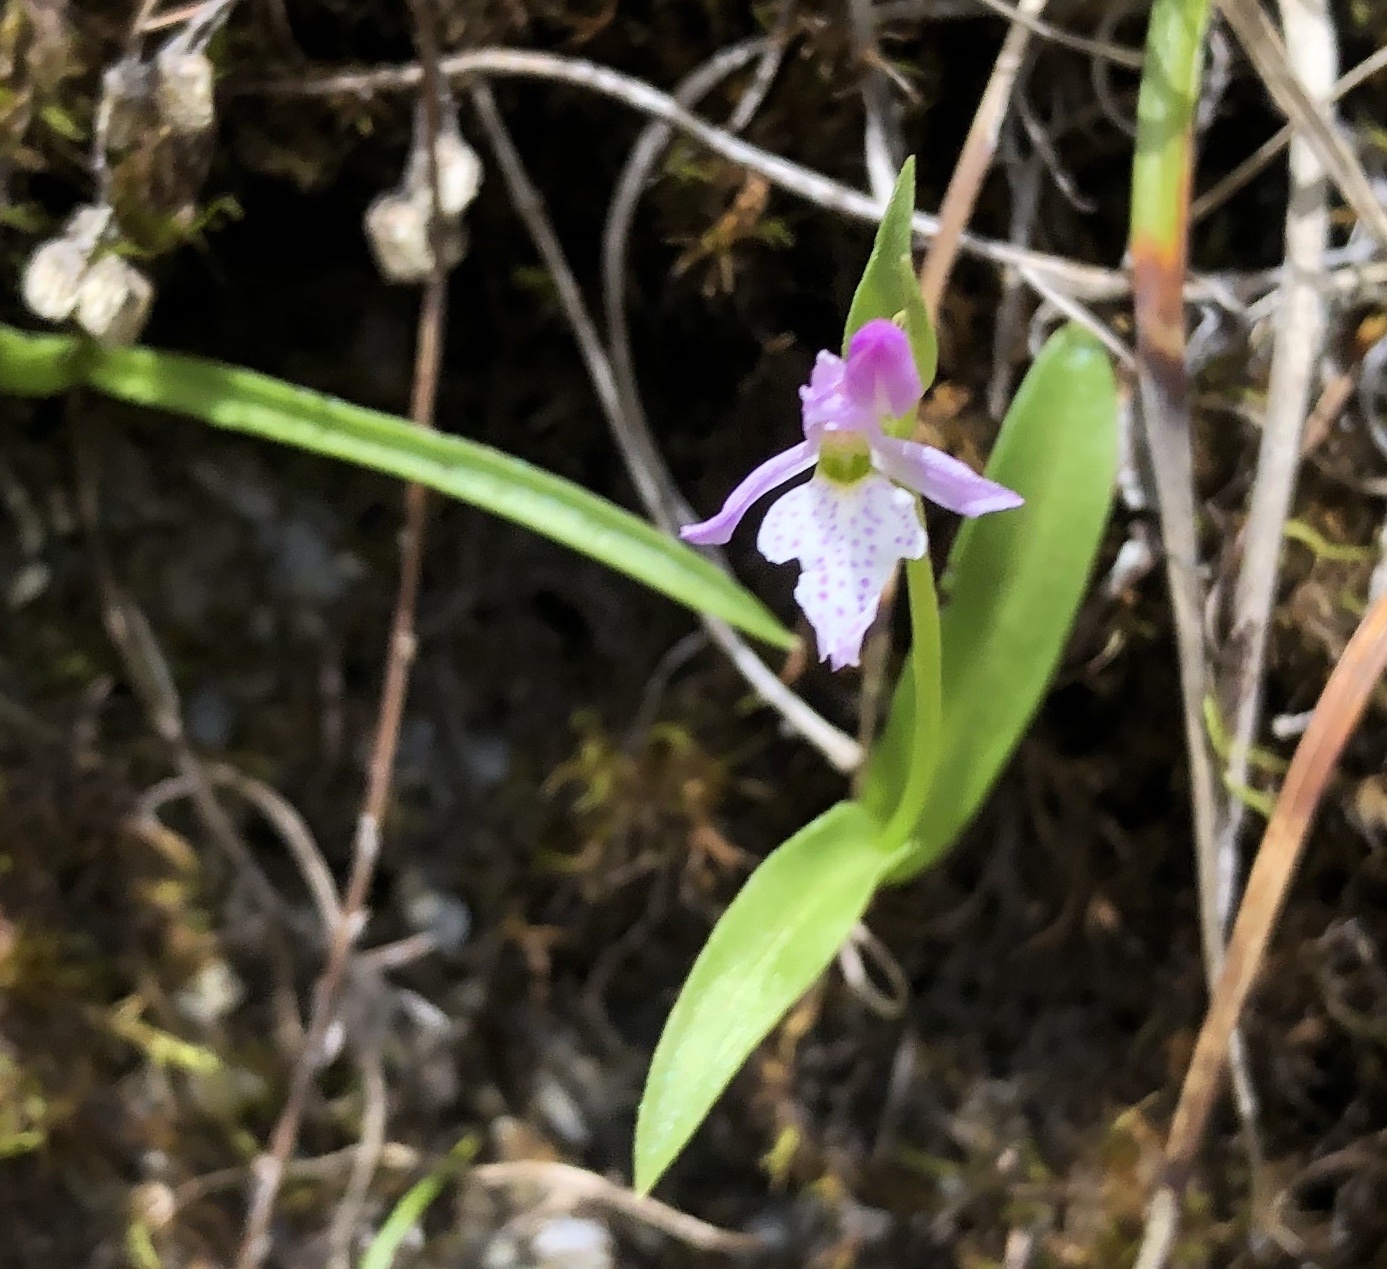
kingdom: Plantae
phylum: Tracheophyta
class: Liliopsida
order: Asparagales
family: Orchidaceae
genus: Hemipilia
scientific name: Hemipilia alpestris
